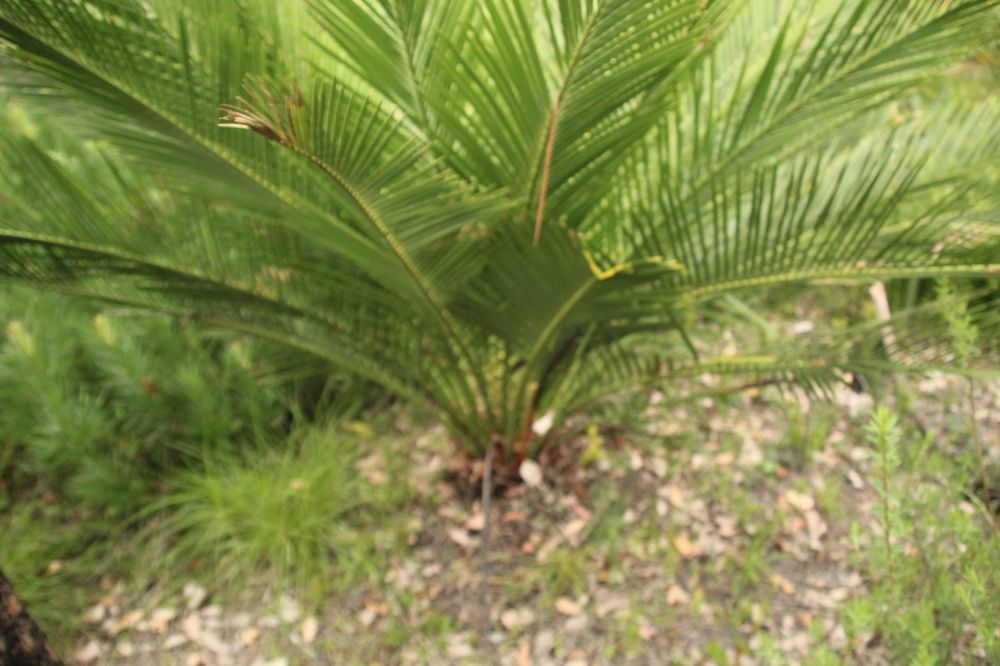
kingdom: Plantae
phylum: Tracheophyta
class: Cycadopsida
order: Cycadales
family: Zamiaceae
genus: Macrozamia
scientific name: Macrozamia riedlei
